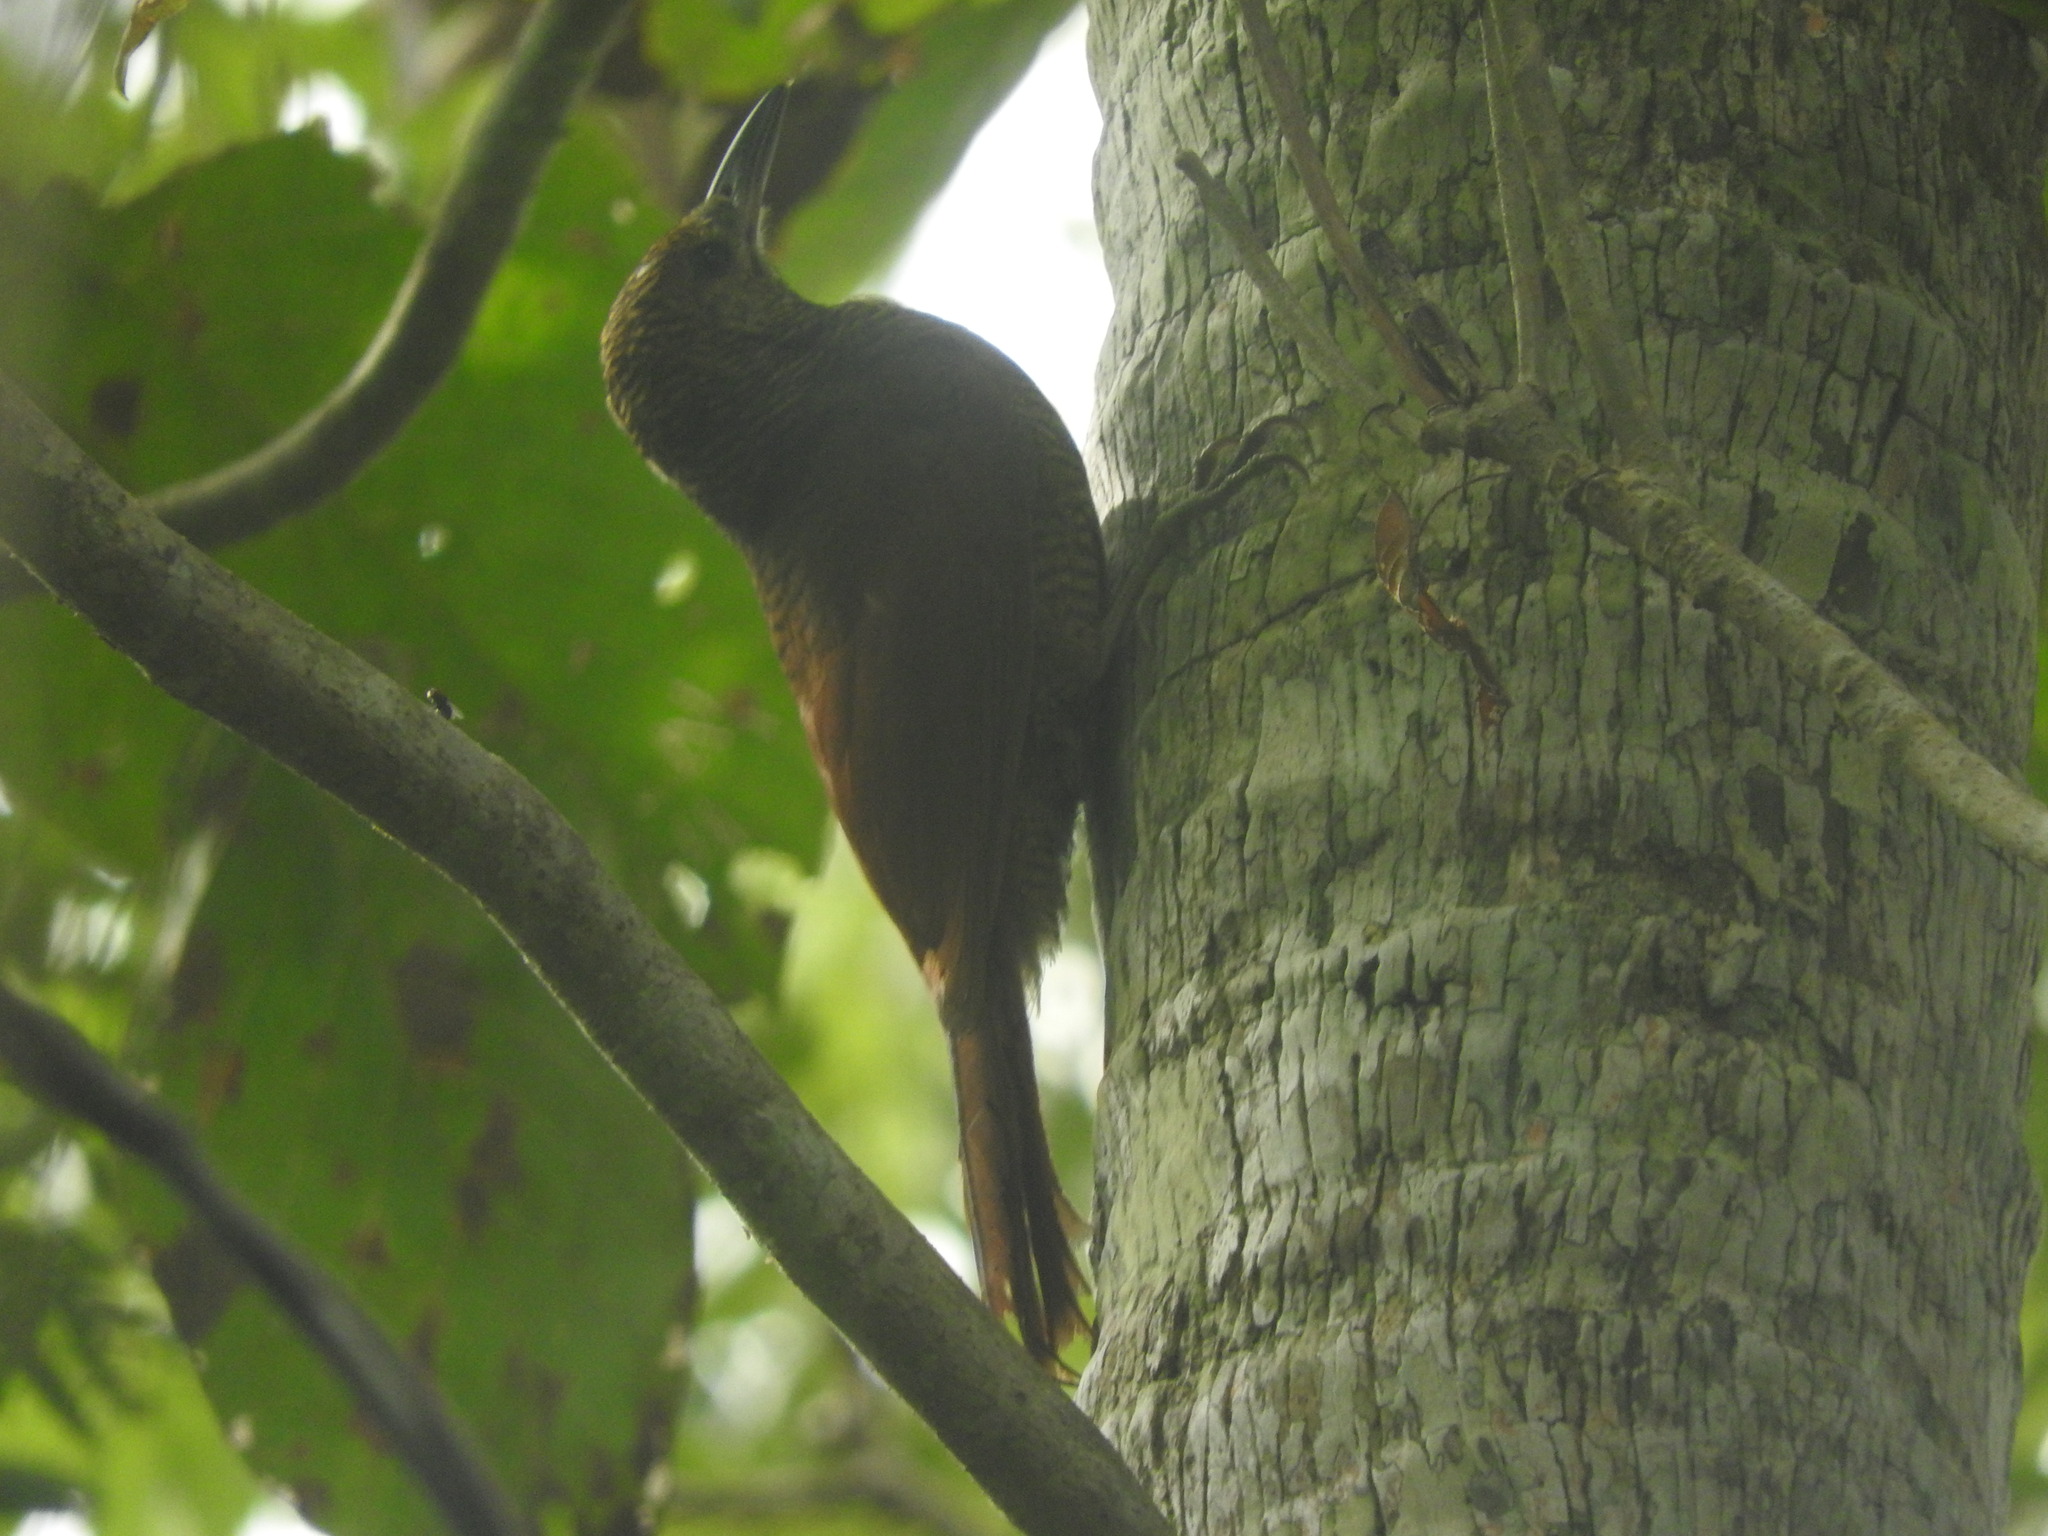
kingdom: Animalia
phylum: Chordata
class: Aves
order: Passeriformes
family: Furnariidae
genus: Dendrocolaptes
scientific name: Dendrocolaptes sanctithomae
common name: Northern barred-woodcreeper
